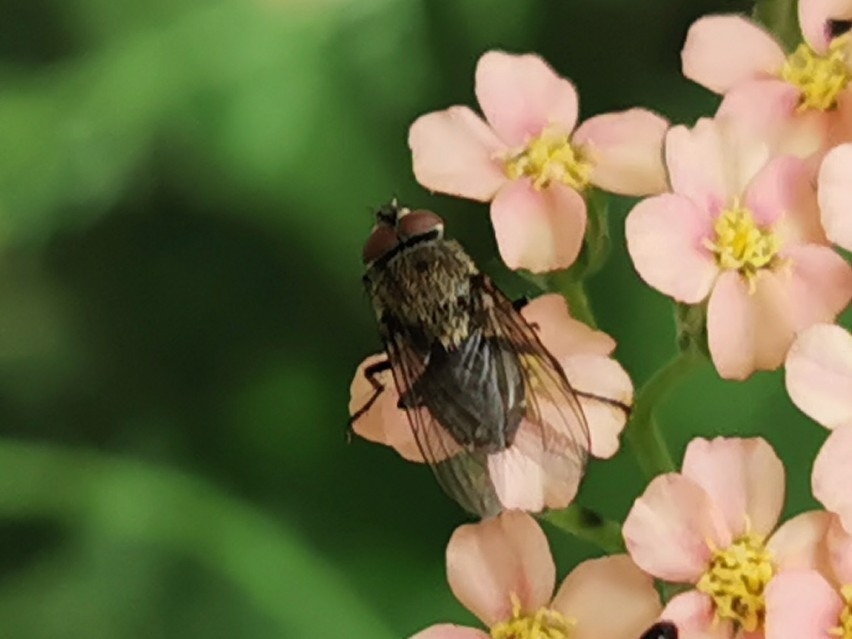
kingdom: Animalia
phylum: Arthropoda
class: Insecta
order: Diptera
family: Polleniidae
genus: Pollenia
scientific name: Pollenia
